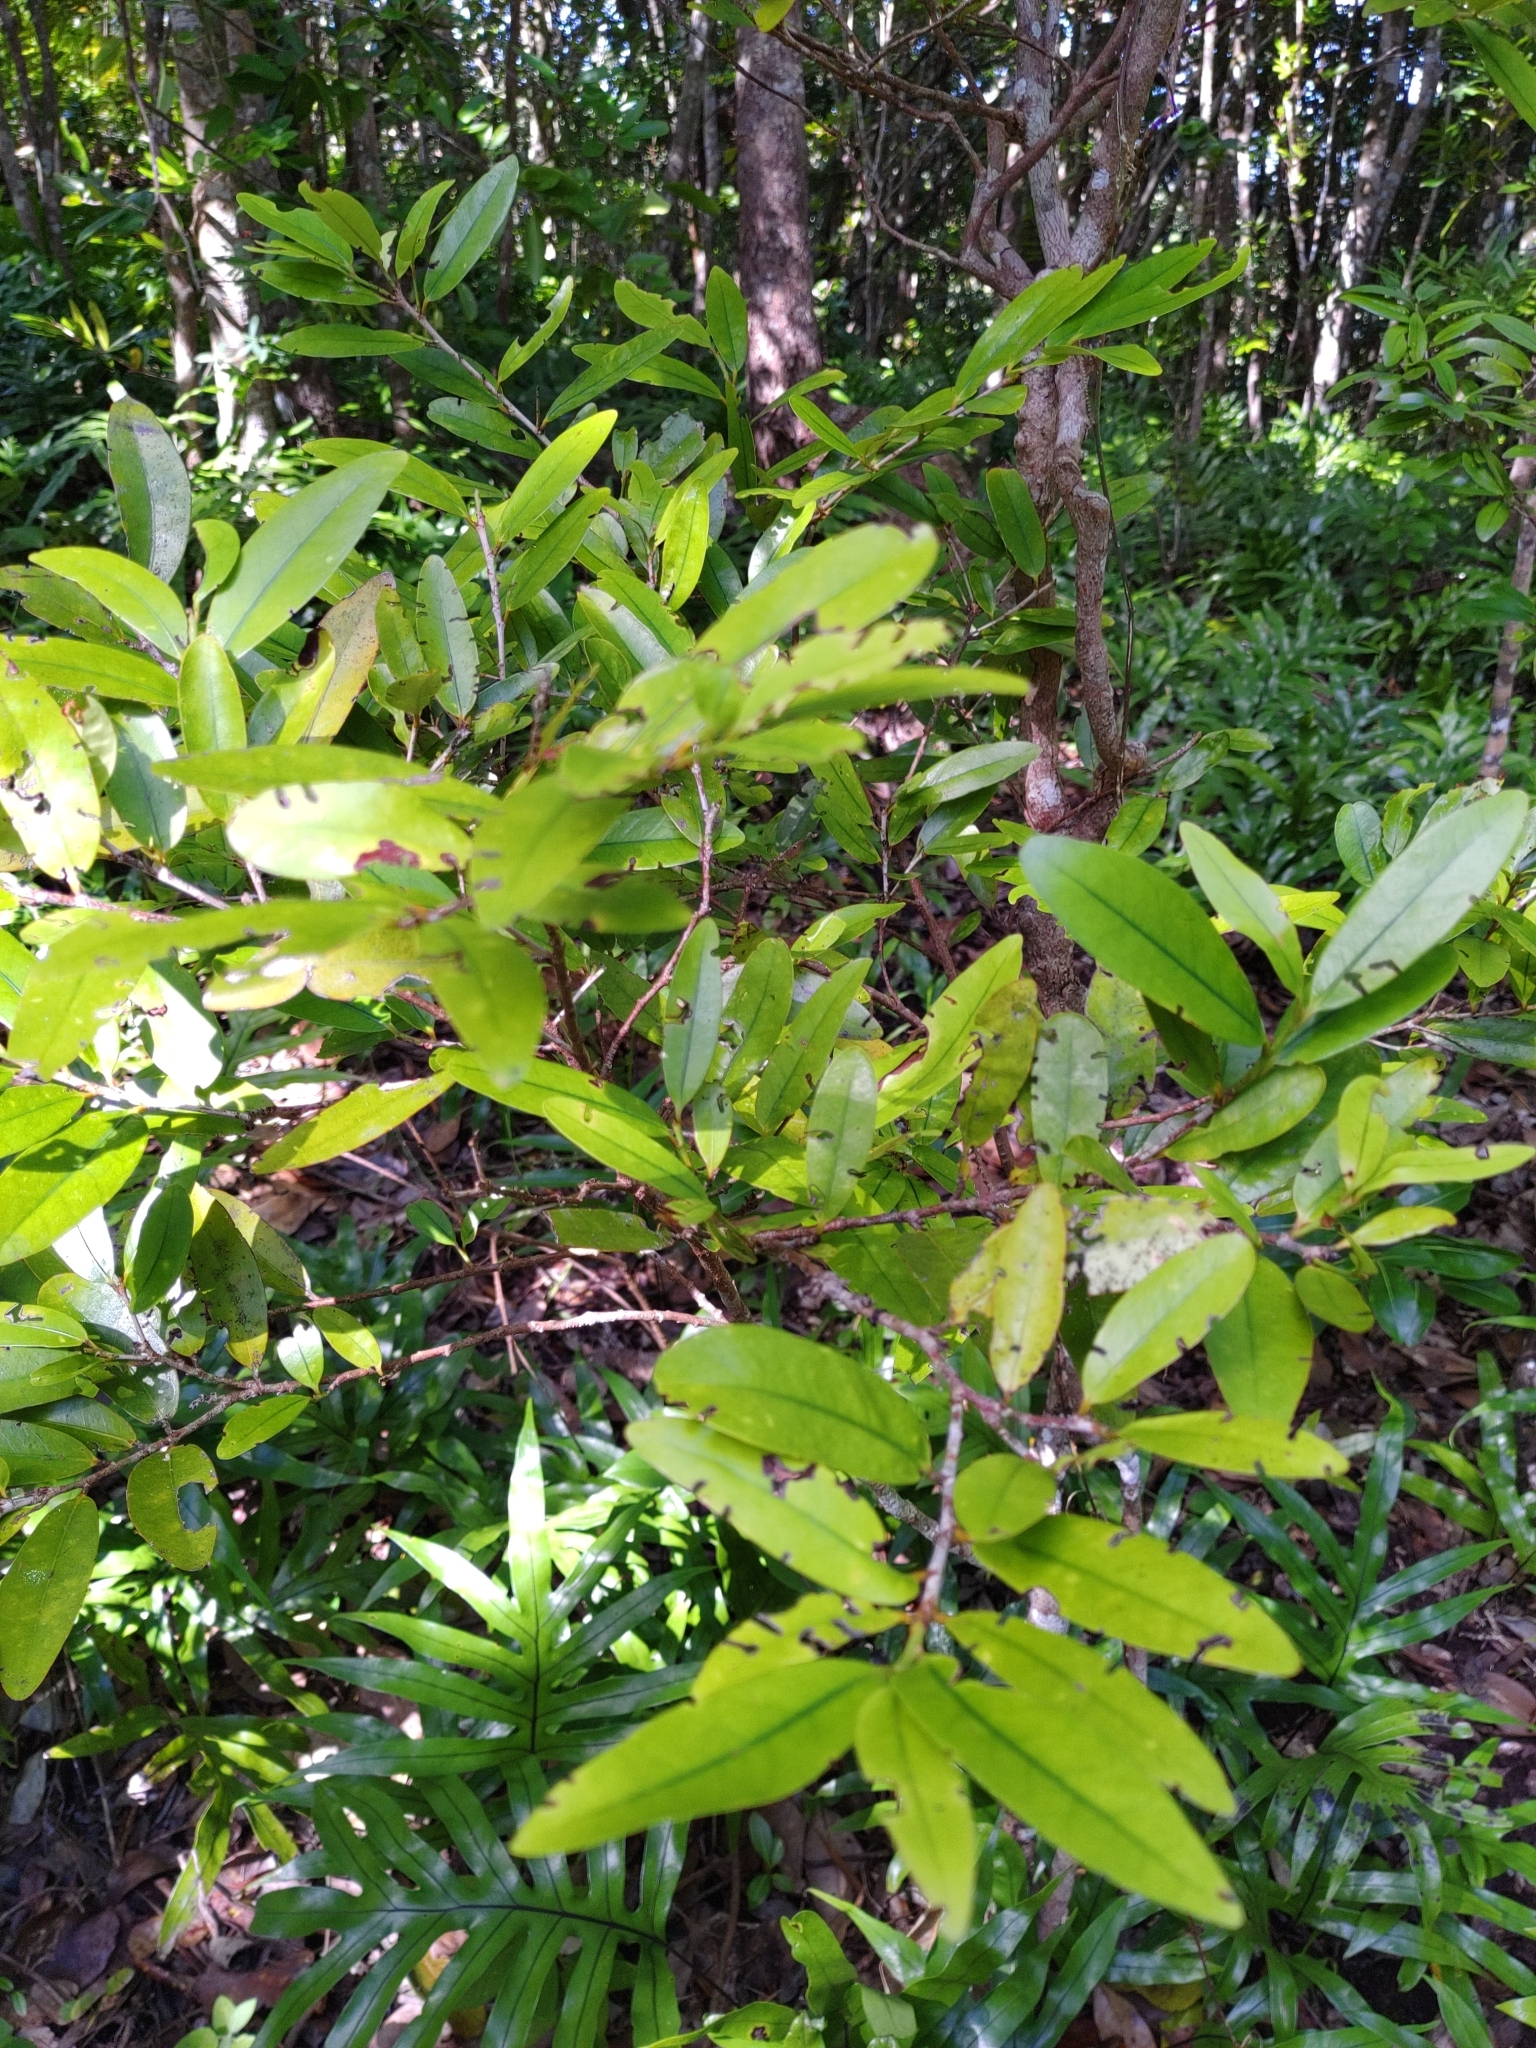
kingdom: Plantae
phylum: Tracheophyta
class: Magnoliopsida
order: Malpighiales
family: Erythroxylaceae
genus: Erythroxylum
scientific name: Erythroxylum sideroxyloides
